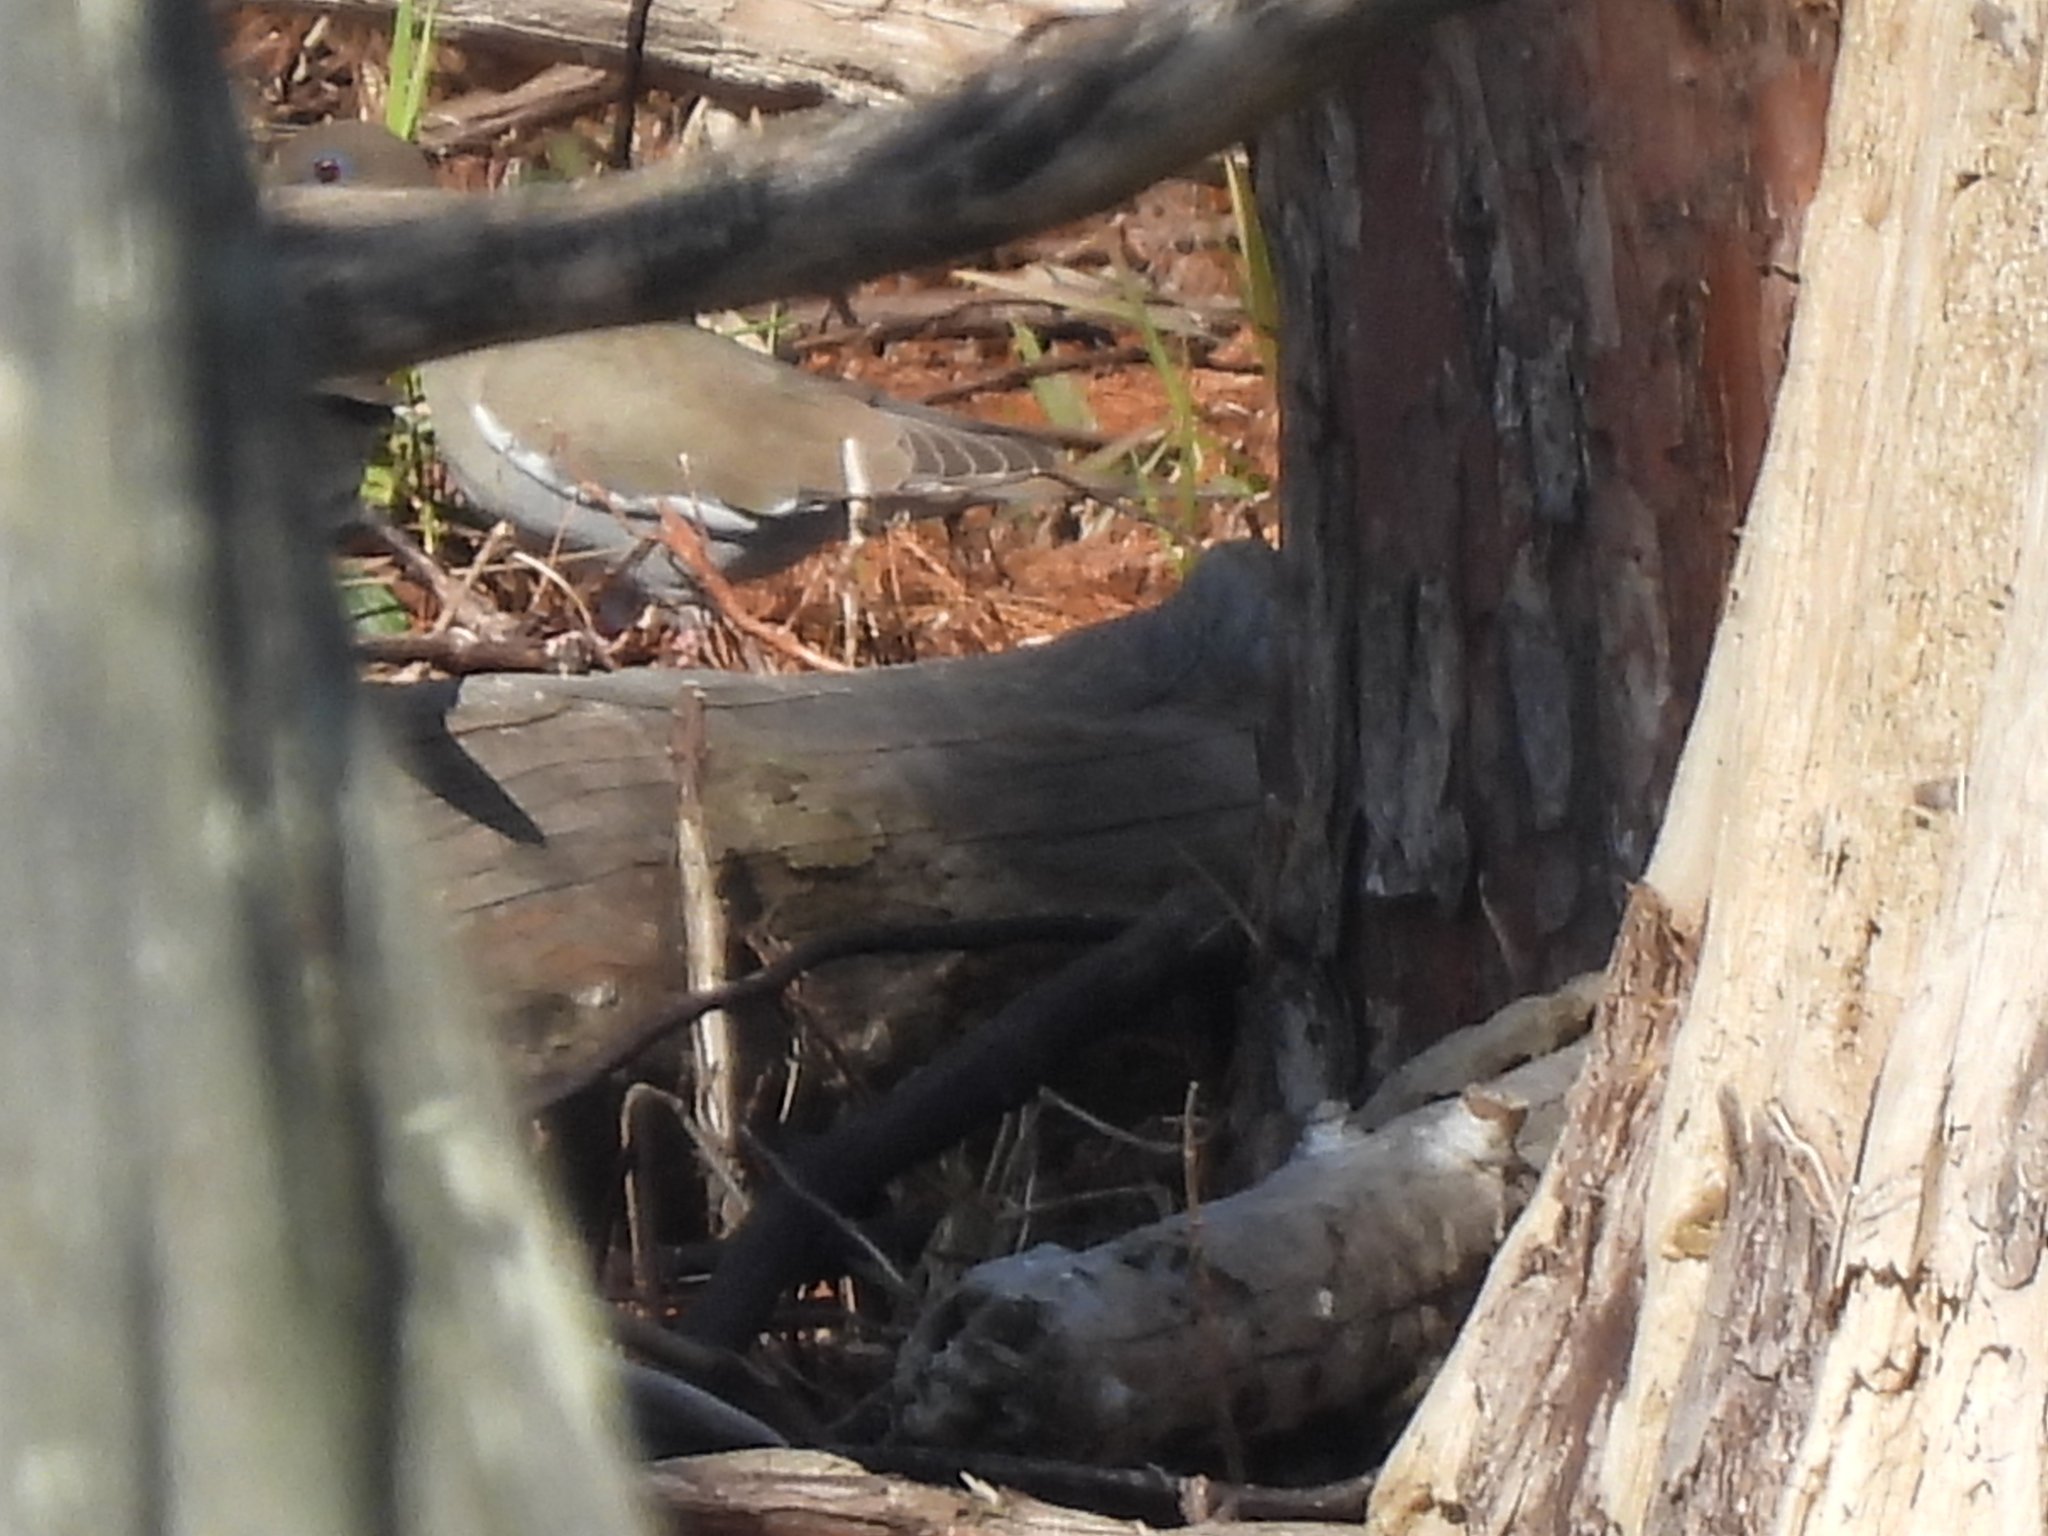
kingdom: Animalia
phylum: Chordata
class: Aves
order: Columbiformes
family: Columbidae
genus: Zenaida
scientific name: Zenaida asiatica
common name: White-winged dove
